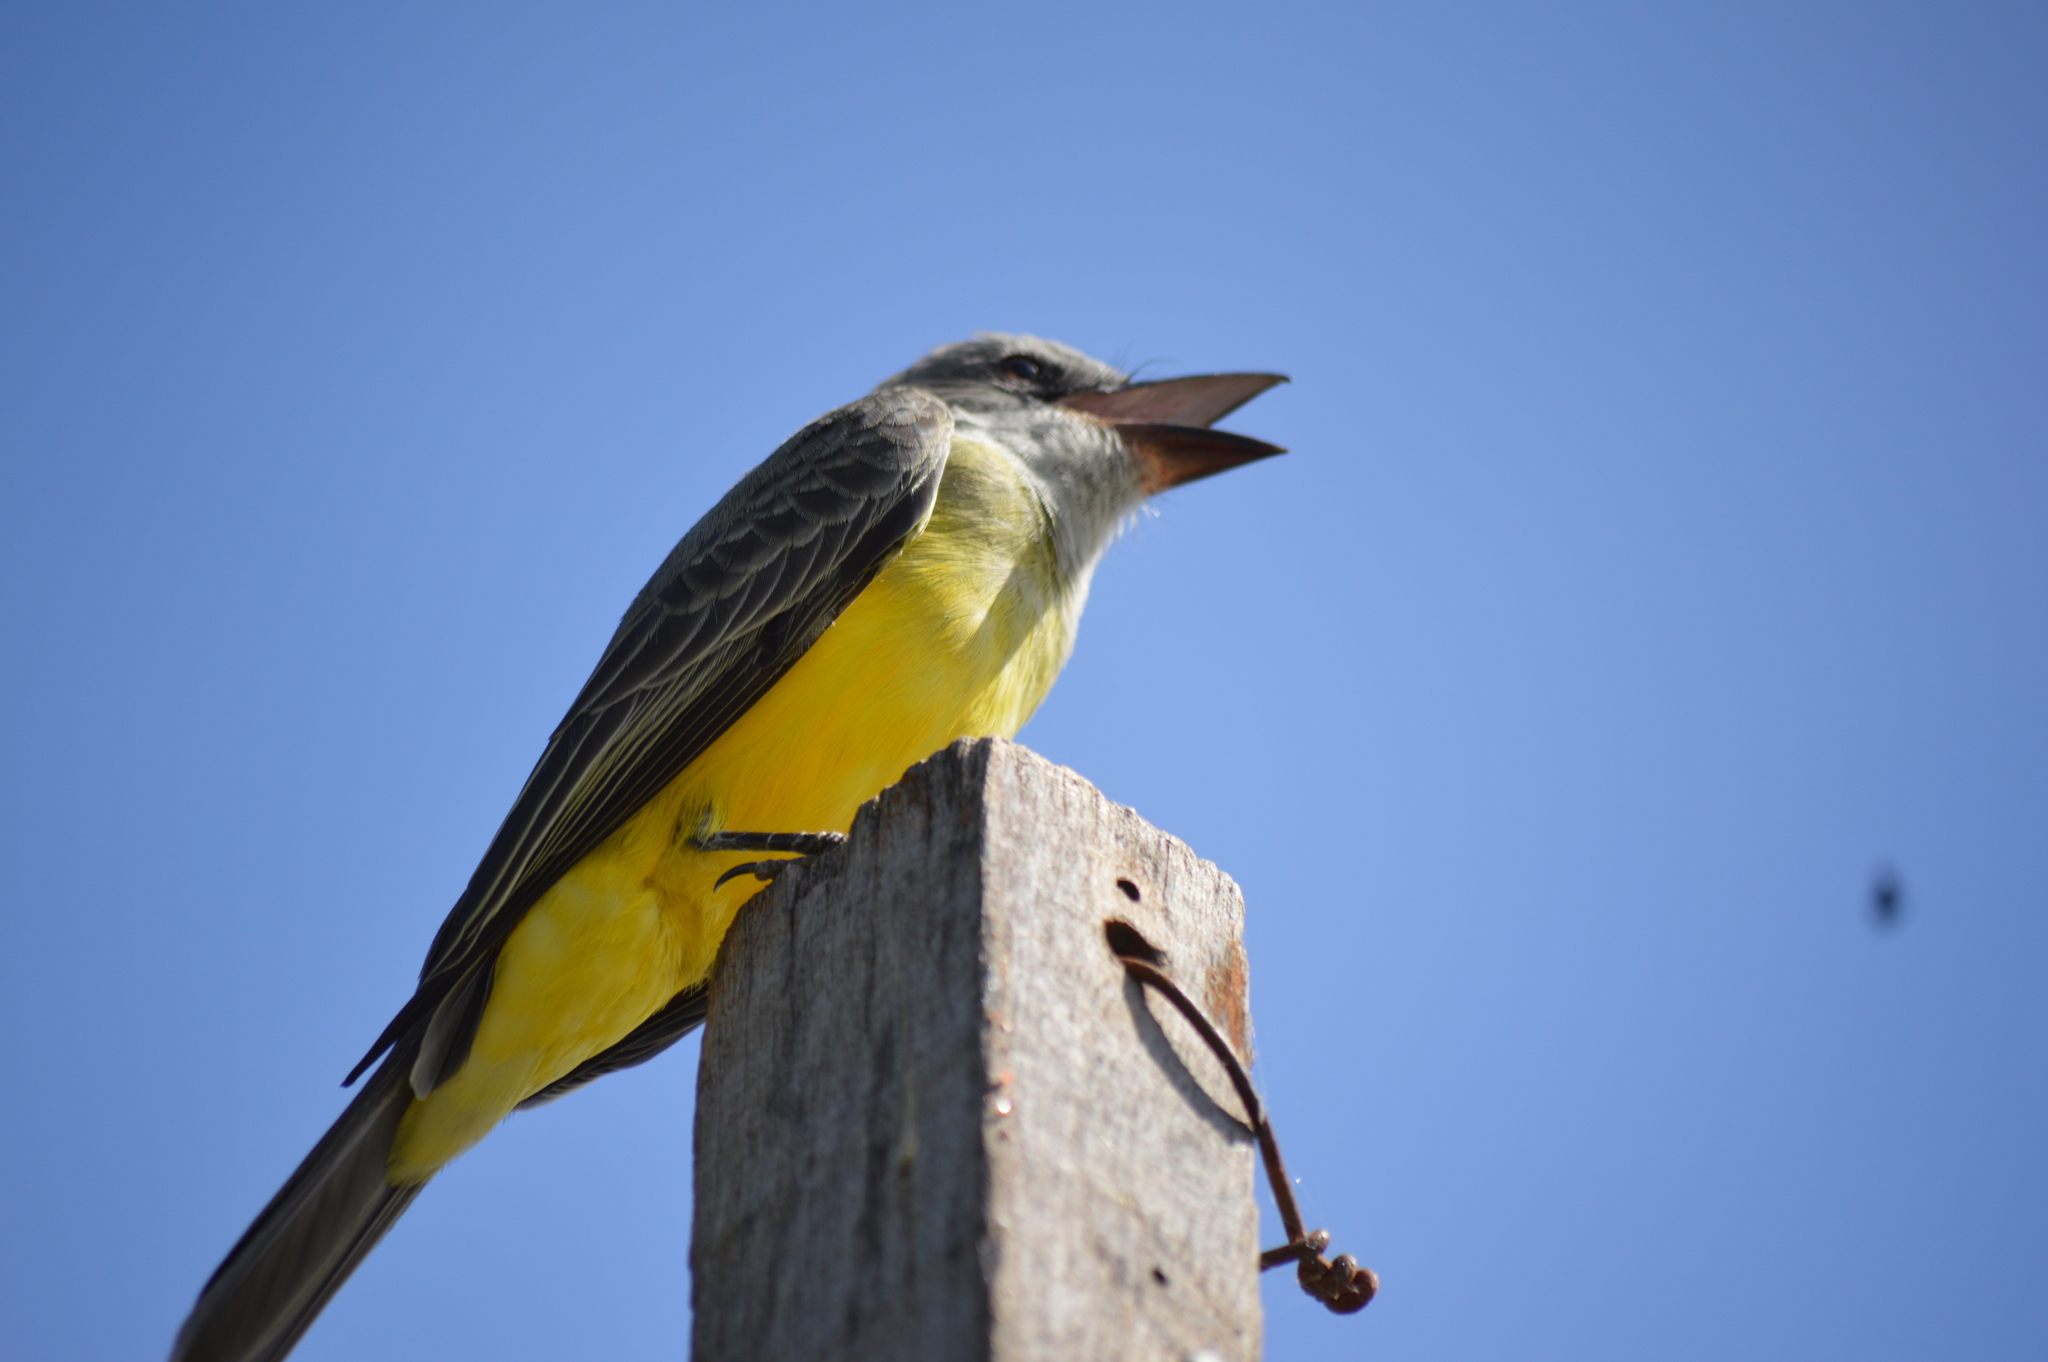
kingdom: Animalia
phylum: Chordata
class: Aves
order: Passeriformes
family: Tyrannidae
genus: Tyrannus
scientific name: Tyrannus melancholicus
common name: Tropical kingbird
